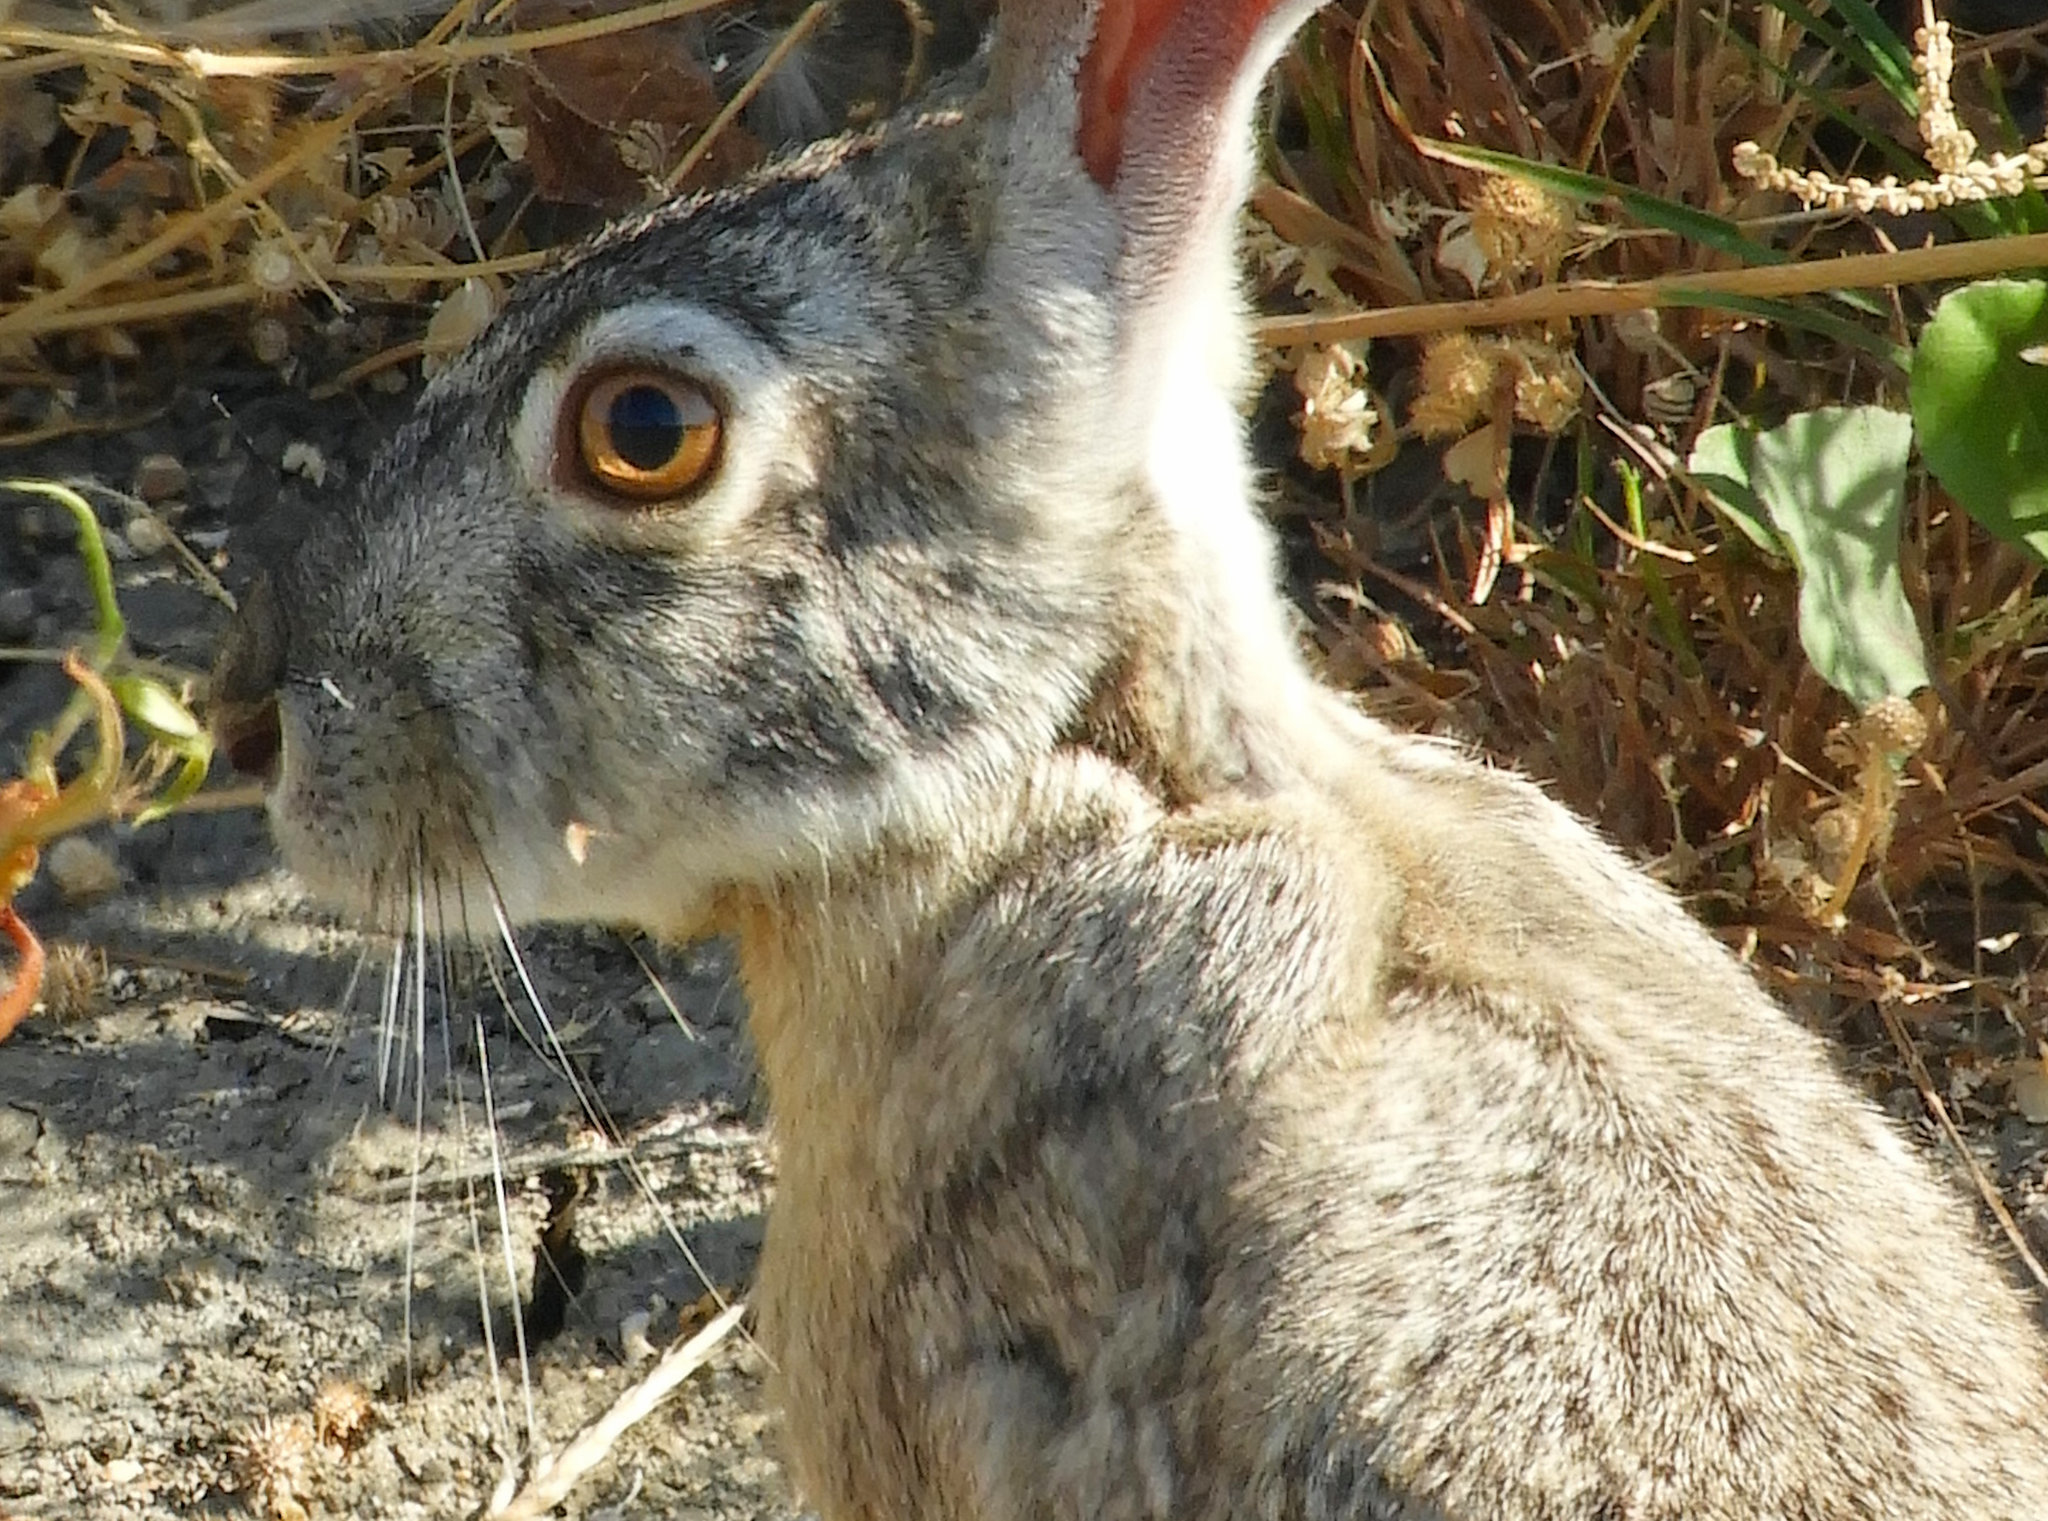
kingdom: Animalia
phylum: Chordata
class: Mammalia
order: Lagomorpha
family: Leporidae
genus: Lepus
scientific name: Lepus californicus
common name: Black-tailed jackrabbit
